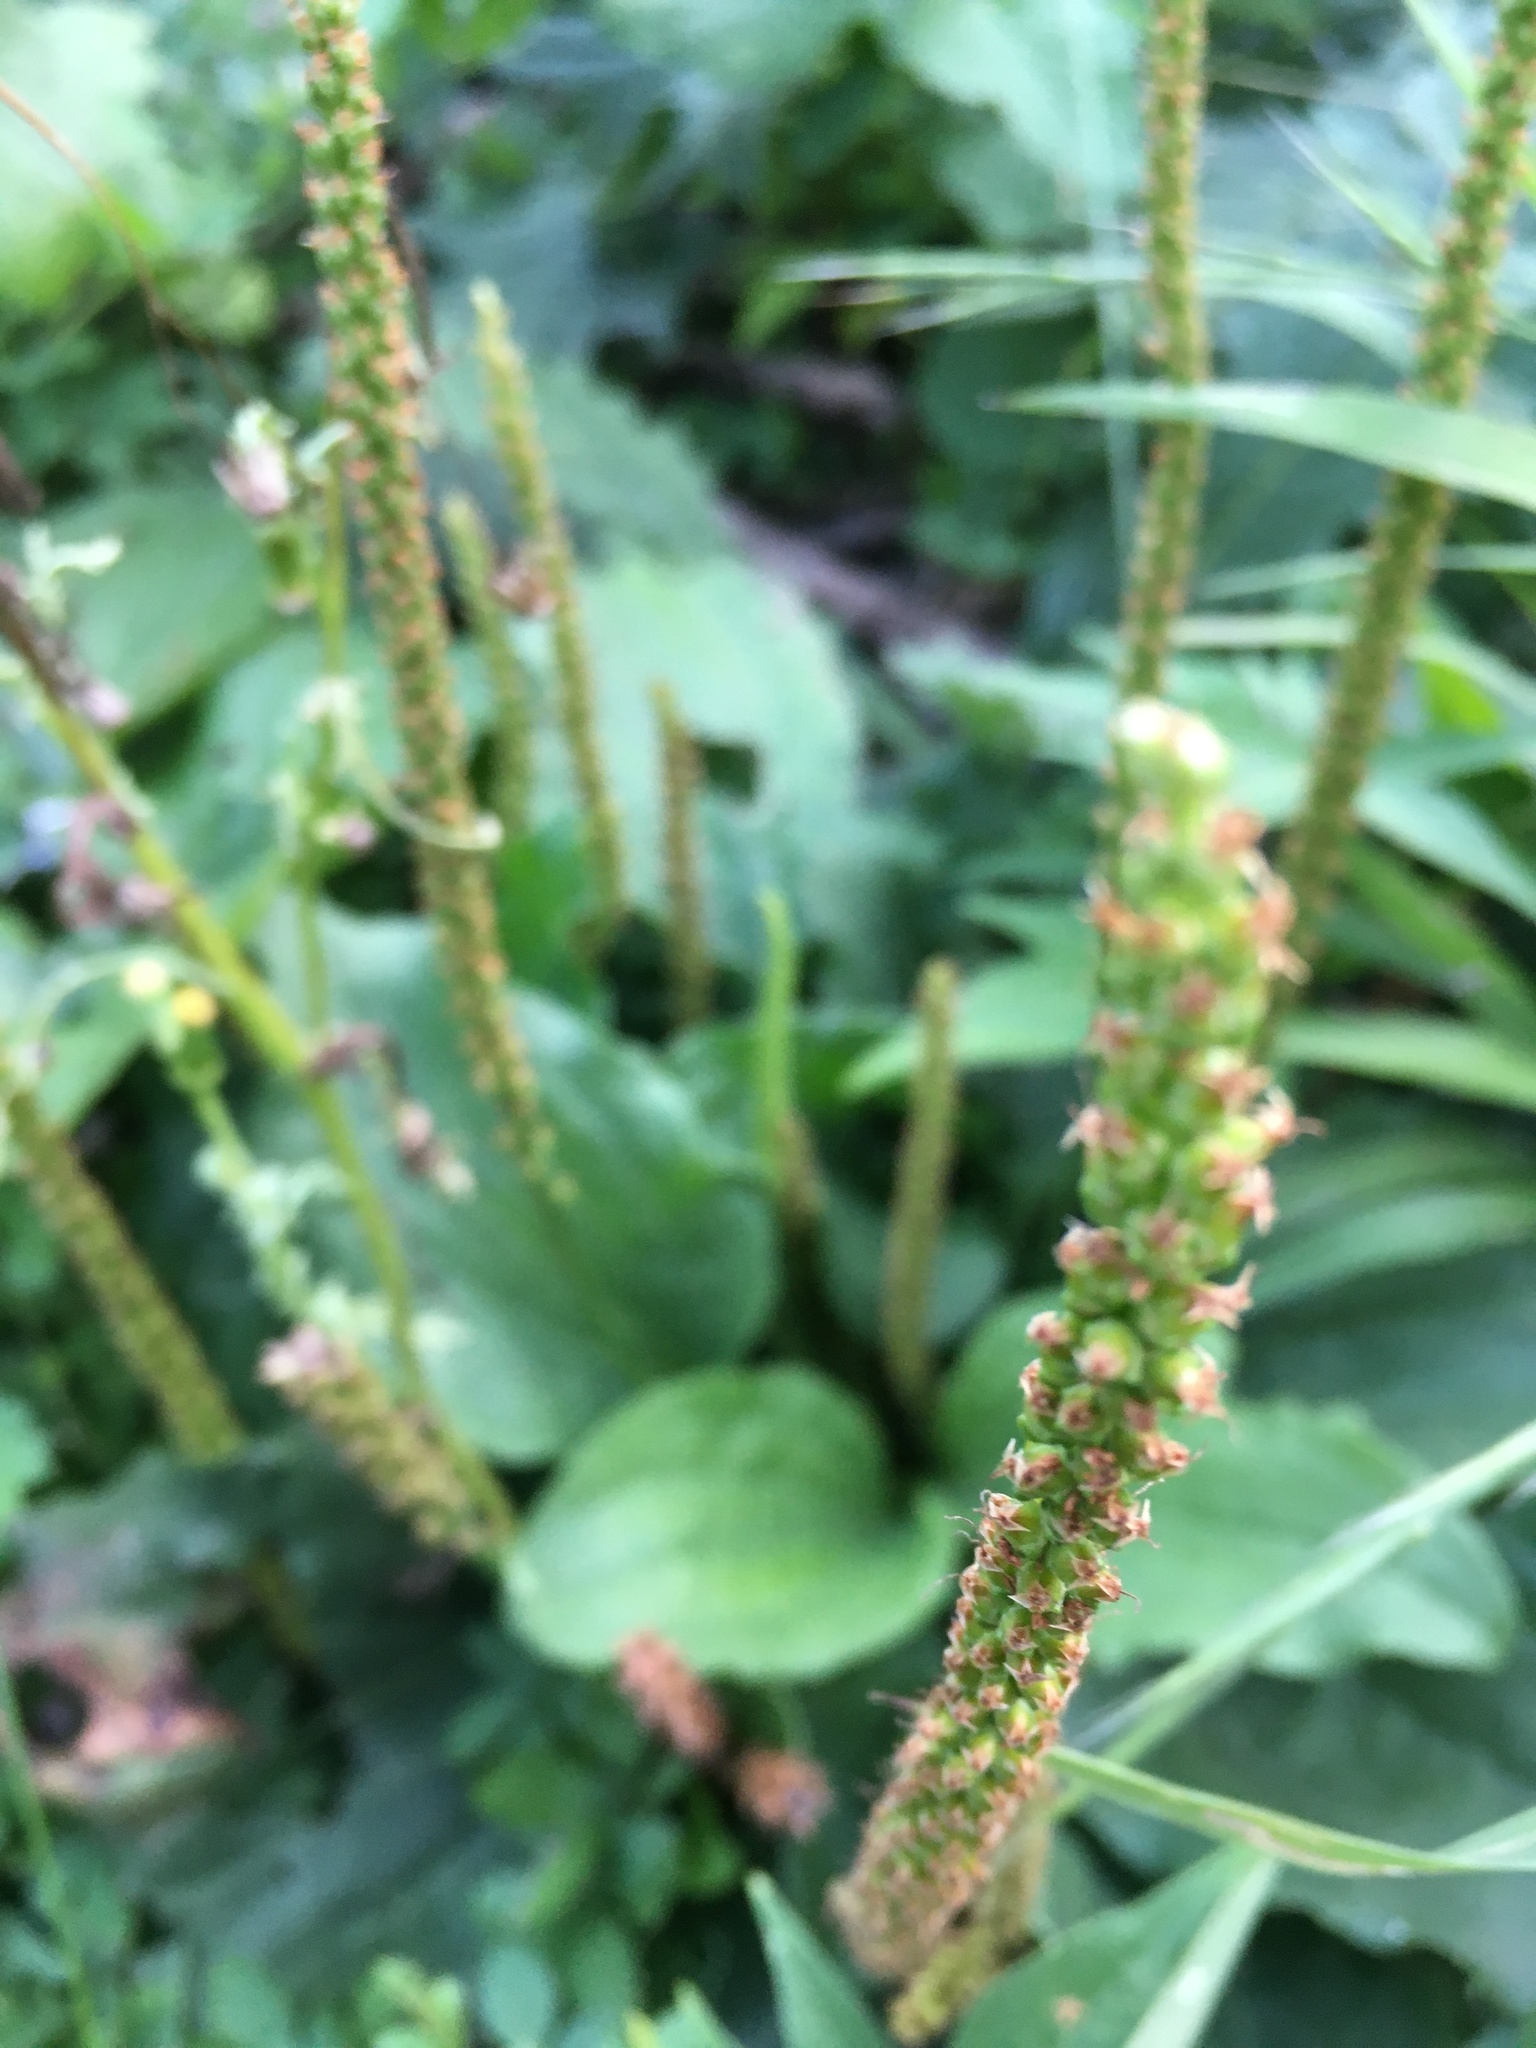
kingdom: Plantae
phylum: Tracheophyta
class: Magnoliopsida
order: Lamiales
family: Plantaginaceae
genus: Plantago
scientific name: Plantago major
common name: Common plantain
